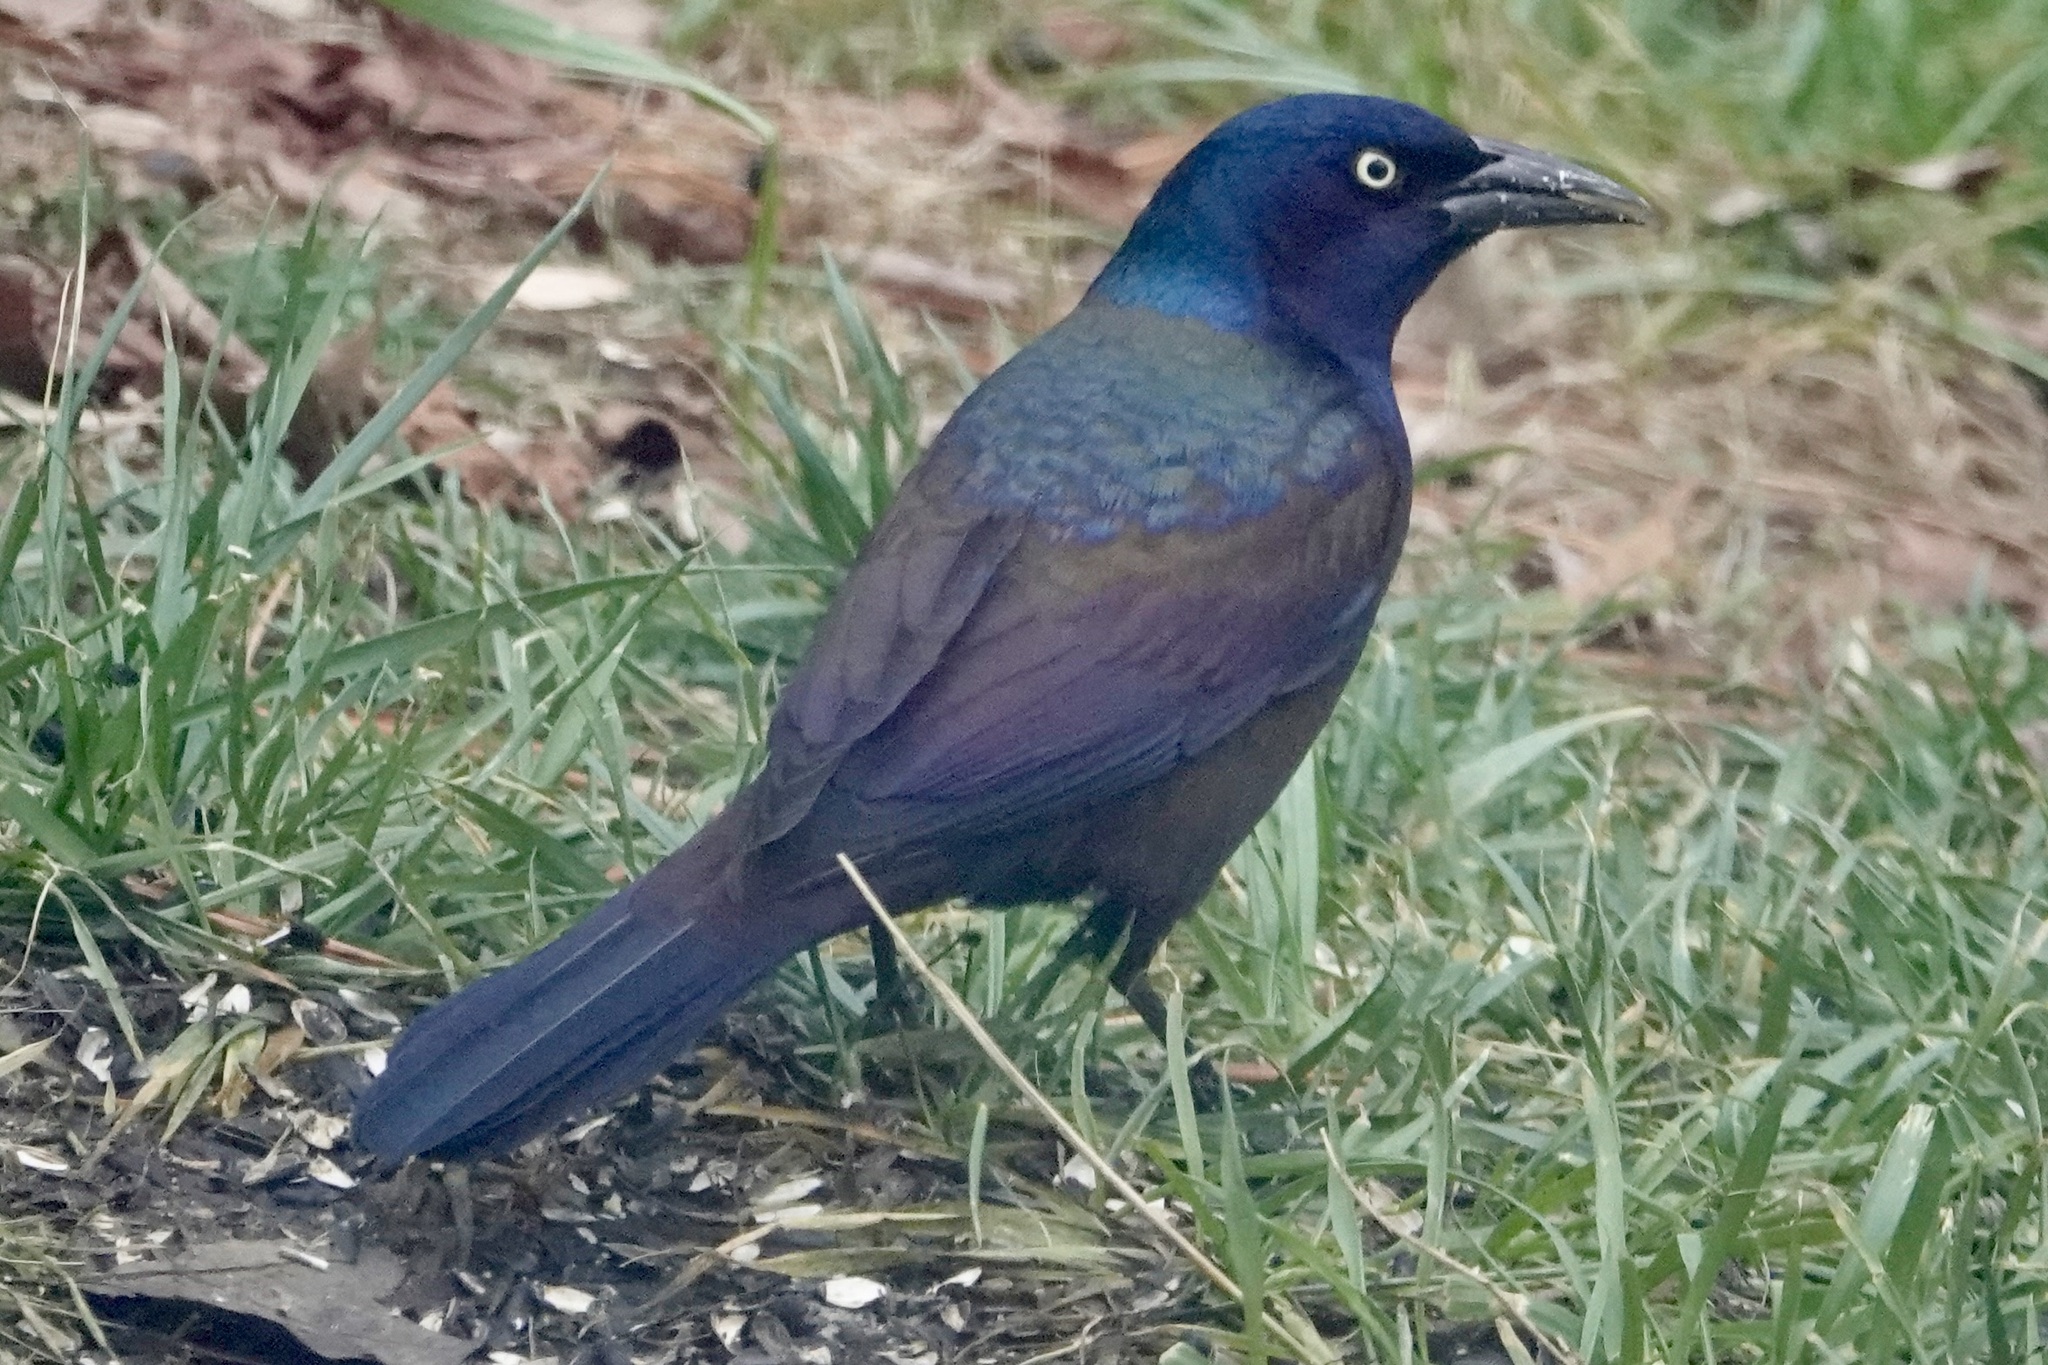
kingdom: Animalia
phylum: Chordata
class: Aves
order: Passeriformes
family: Icteridae
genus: Quiscalus
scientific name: Quiscalus quiscula
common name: Common grackle
